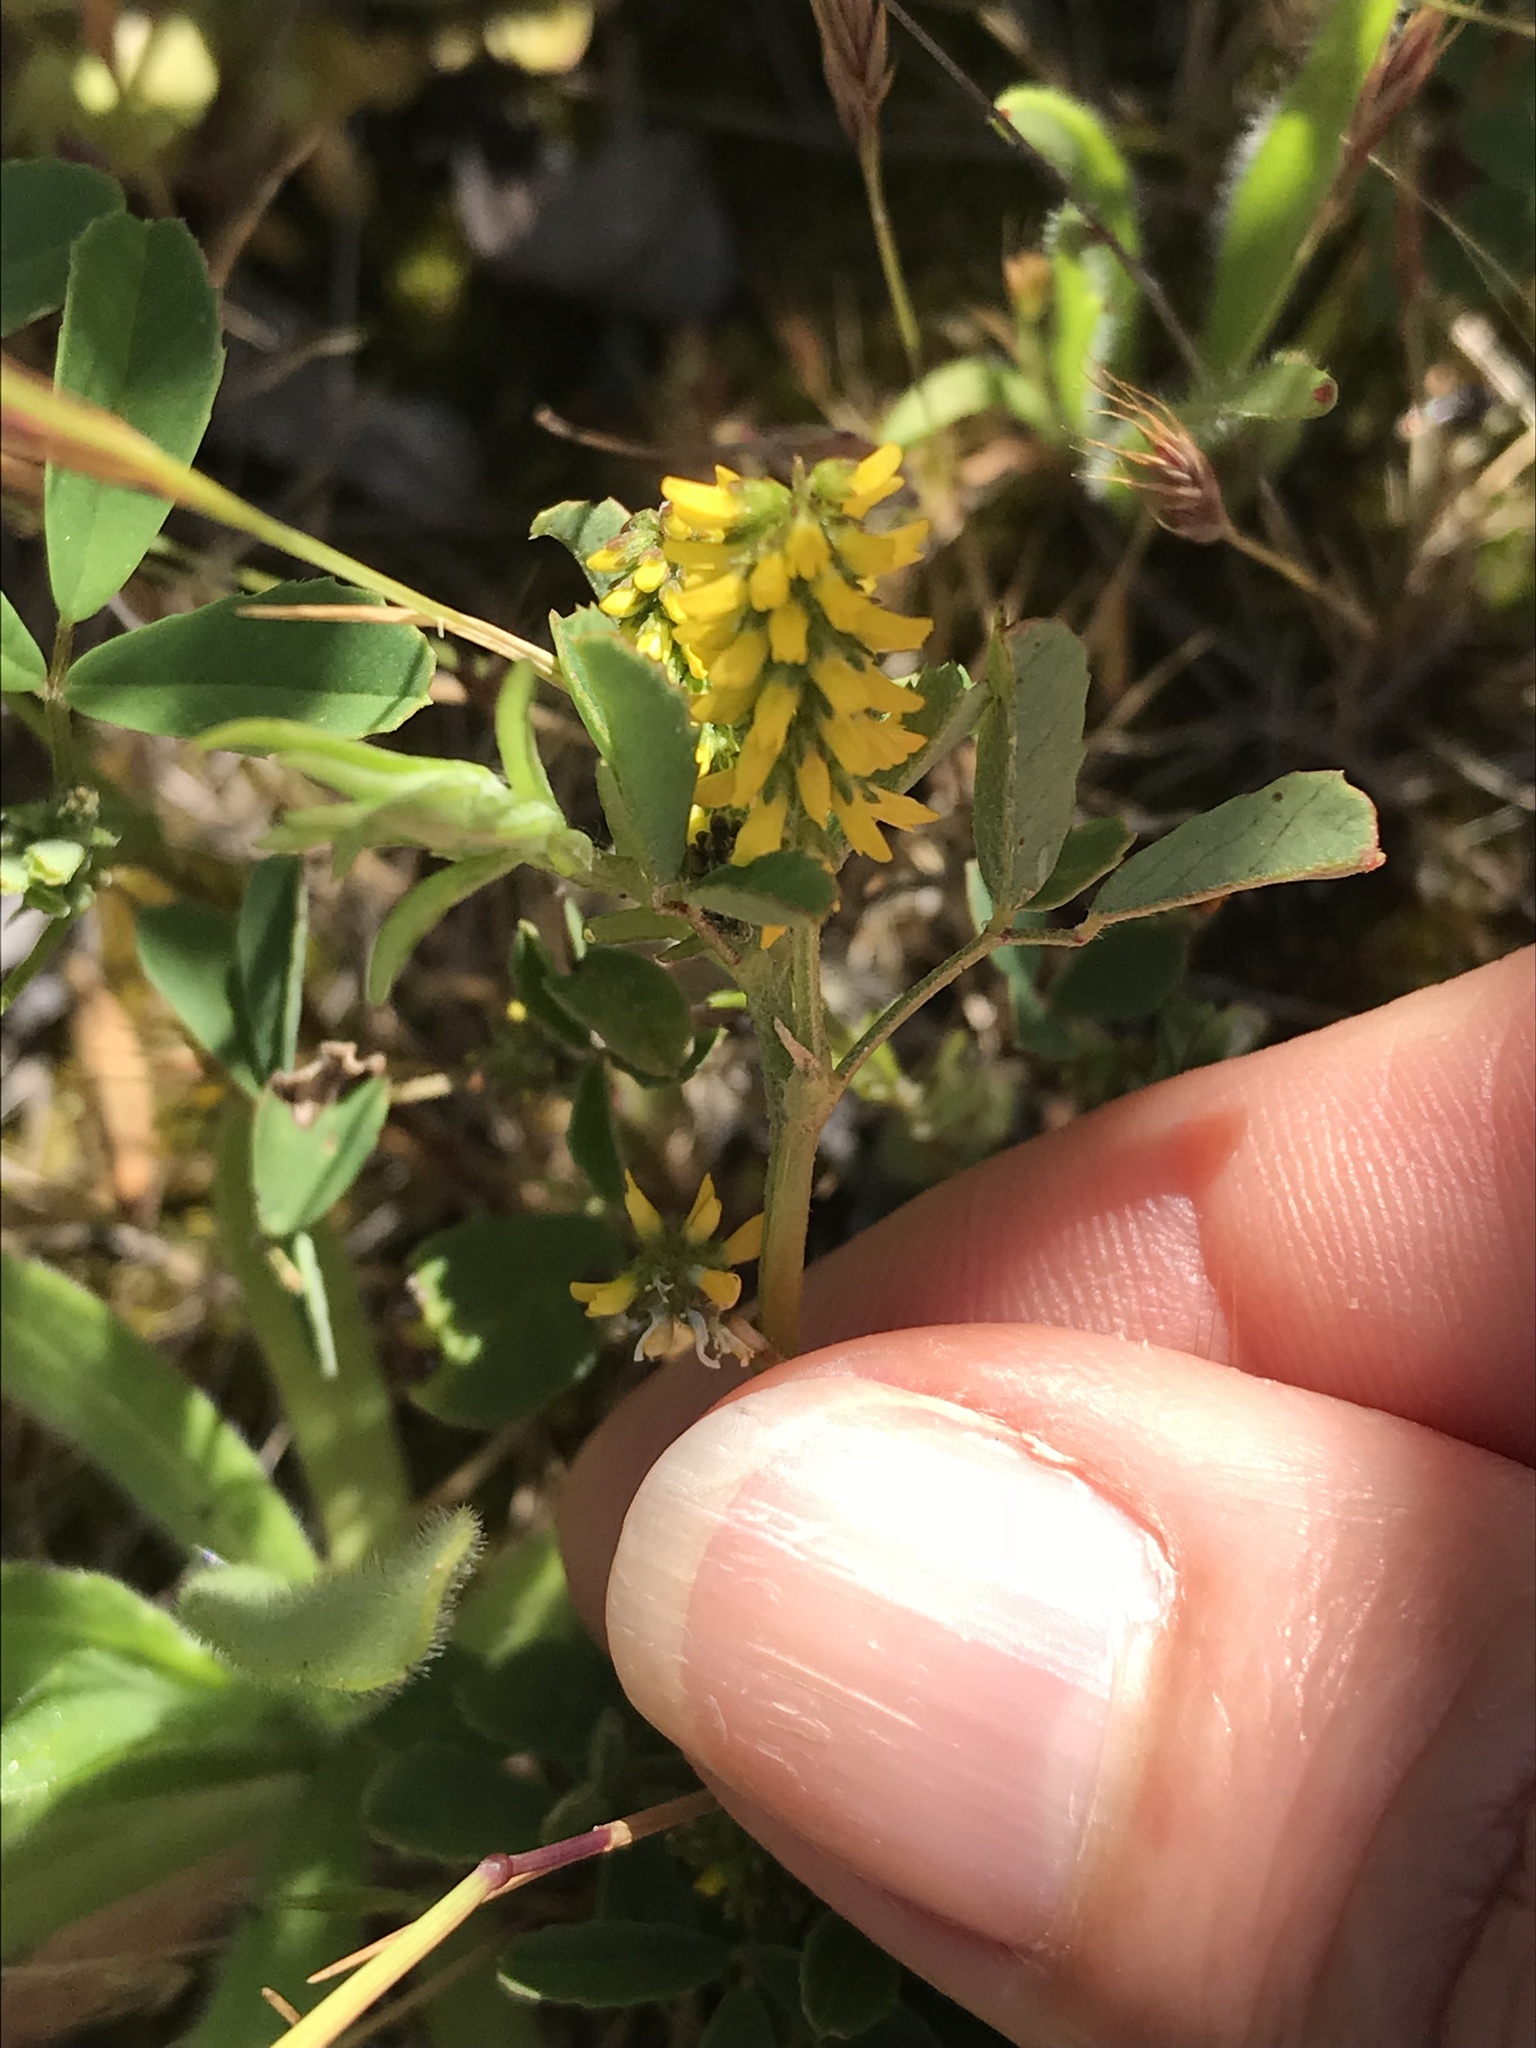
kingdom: Plantae
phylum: Tracheophyta
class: Magnoliopsida
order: Fabales
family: Fabaceae
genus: Melilotus
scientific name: Melilotus indicus
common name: Small melilot
